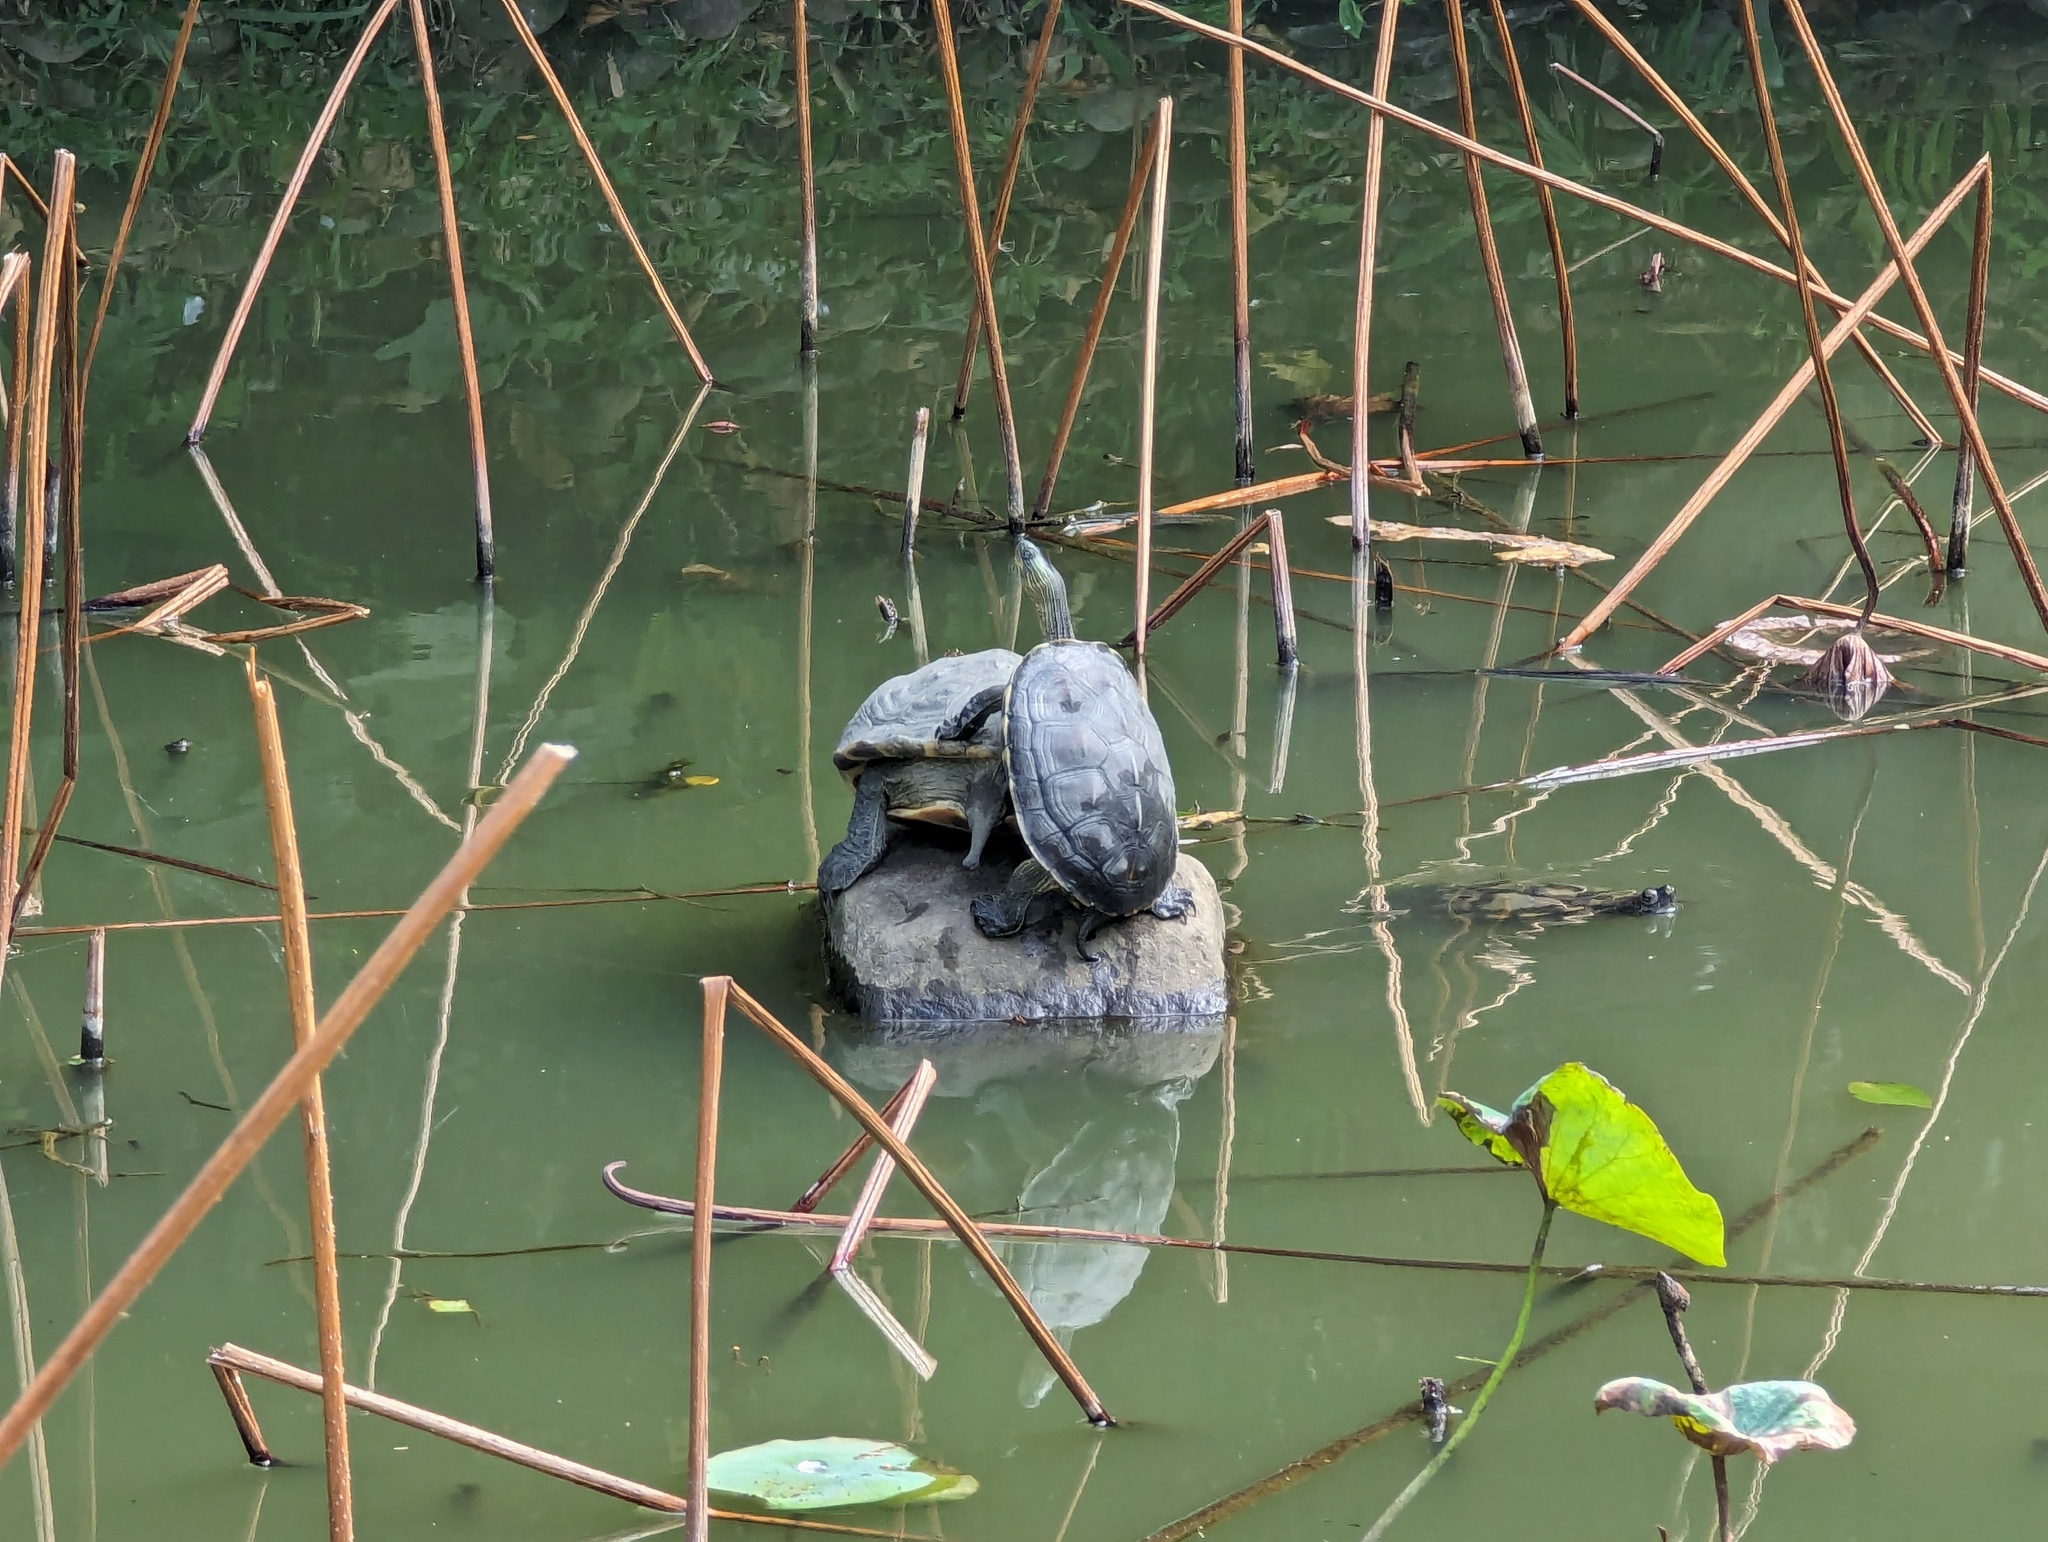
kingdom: Animalia
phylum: Chordata
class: Testudines
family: Geoemydidae
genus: Mauremys
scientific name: Mauremys sinensis
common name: Chinese stripe-necked turtle
